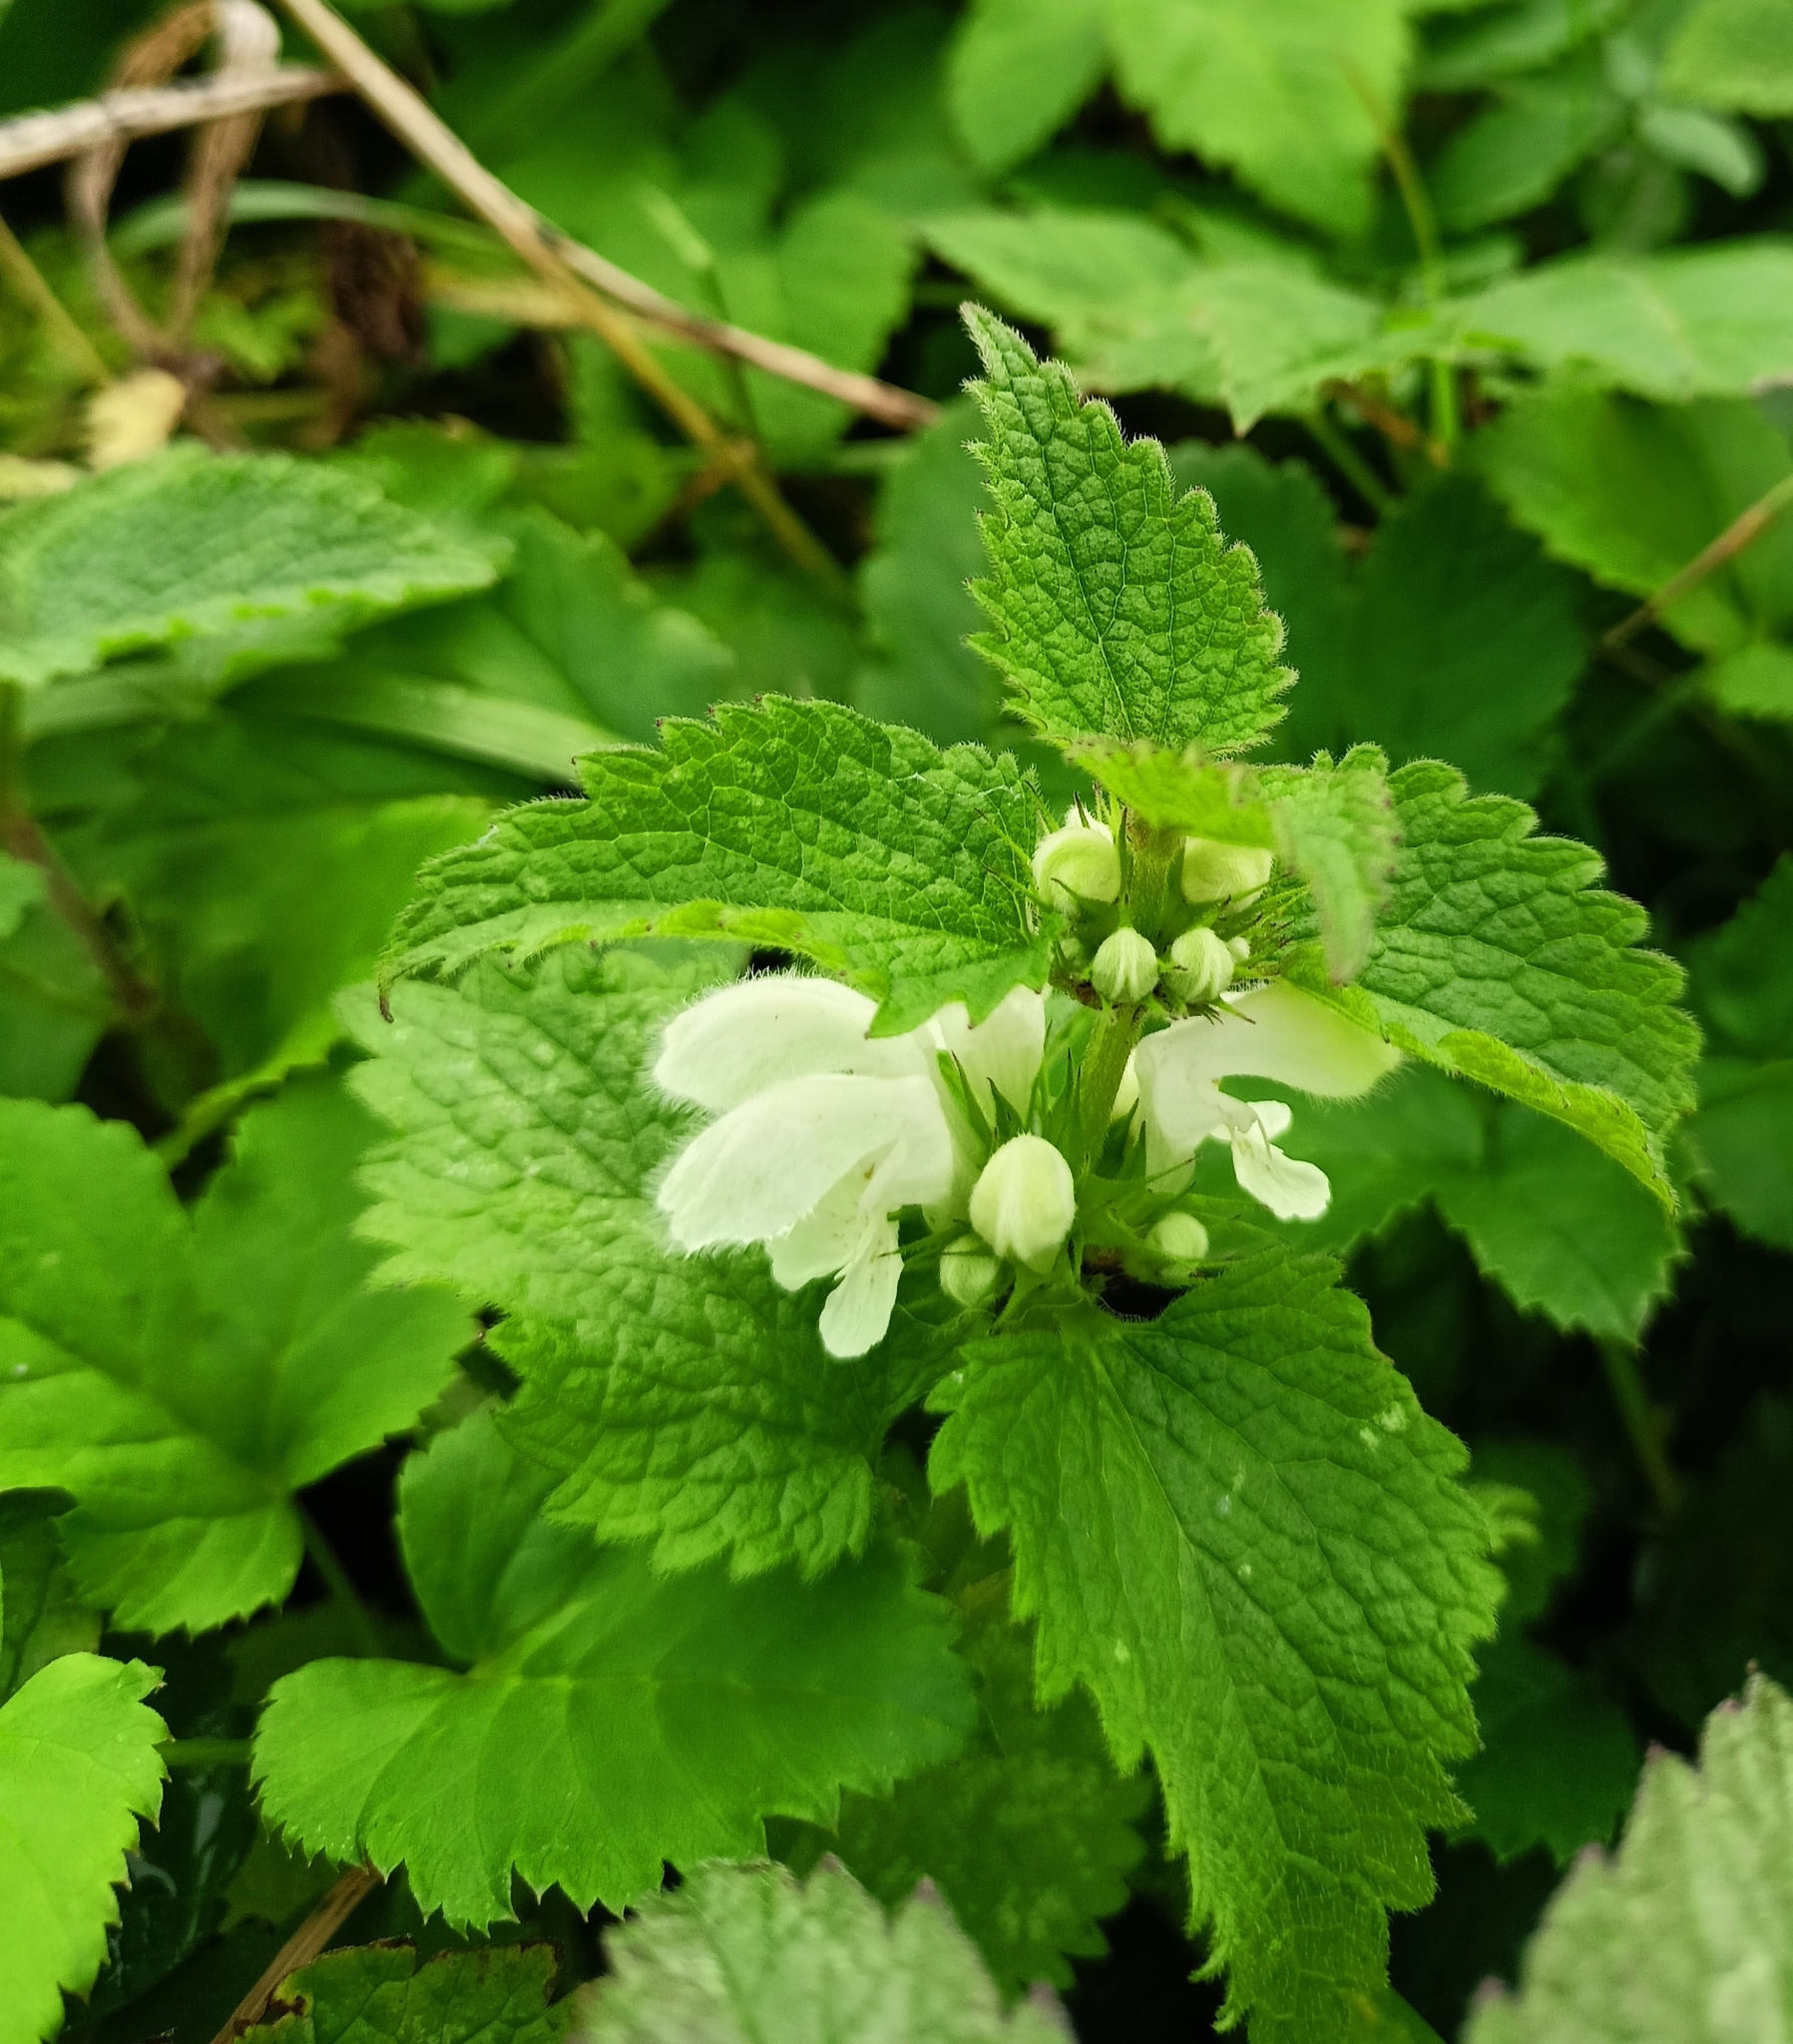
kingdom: Plantae
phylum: Tracheophyta
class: Magnoliopsida
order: Lamiales
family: Lamiaceae
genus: Lamium
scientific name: Lamium album
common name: White dead-nettle
